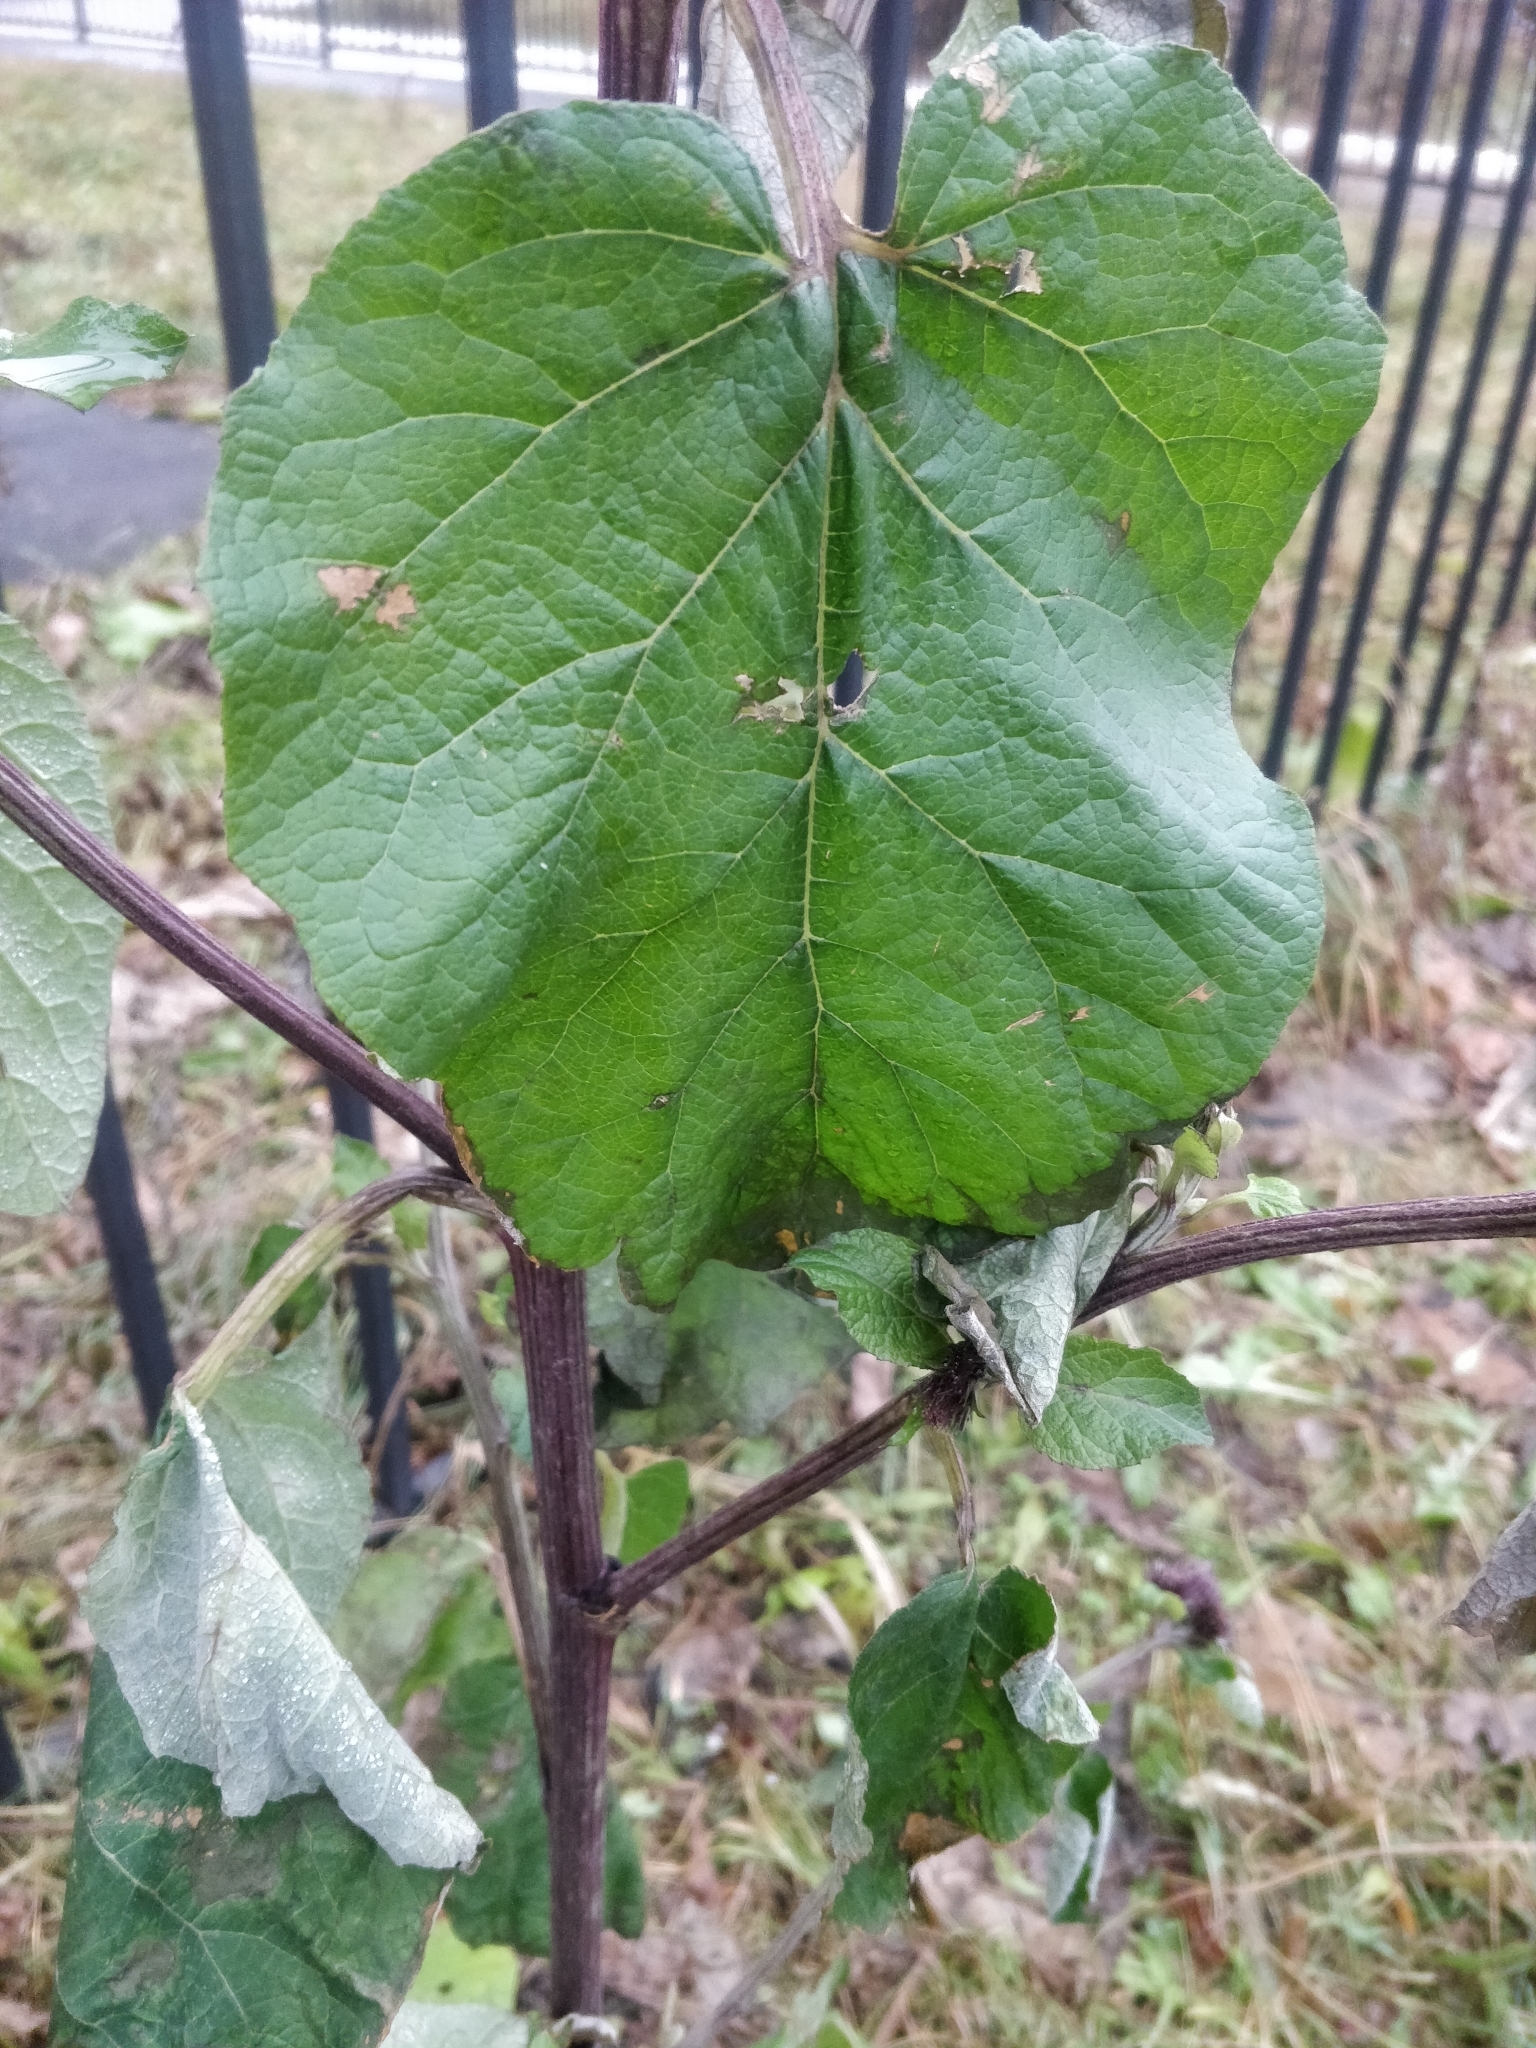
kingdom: Plantae
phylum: Tracheophyta
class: Magnoliopsida
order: Asterales
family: Asteraceae
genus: Arctium
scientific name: Arctium tomentosum
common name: Woolly burdock
